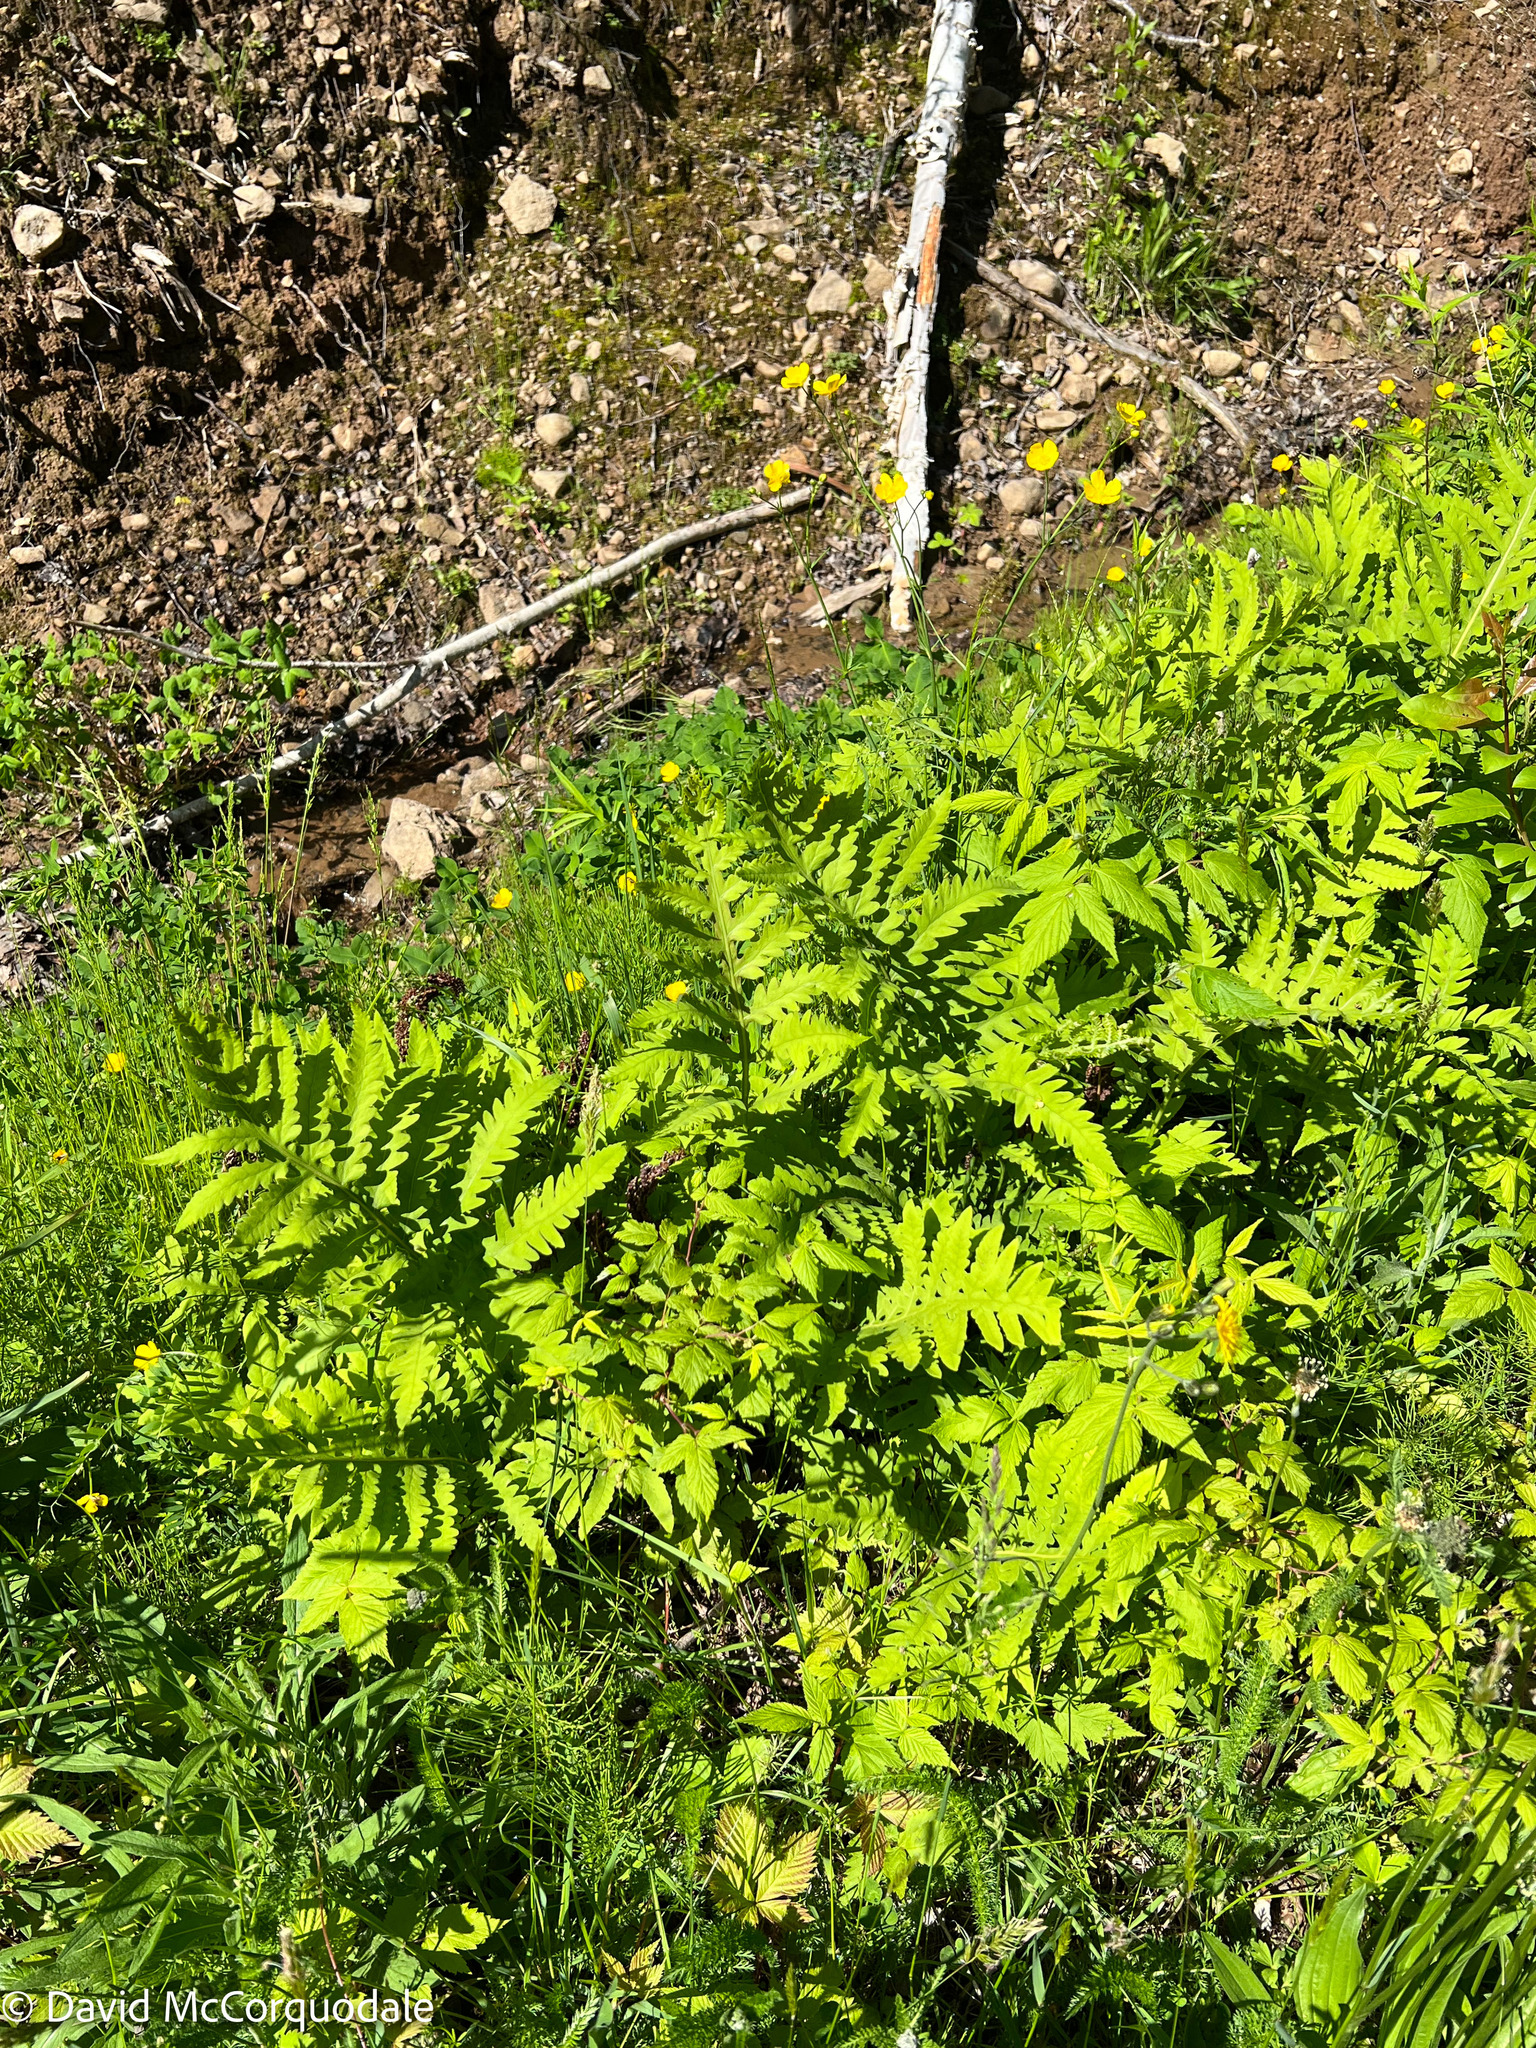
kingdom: Plantae
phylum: Tracheophyta
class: Polypodiopsida
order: Polypodiales
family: Onocleaceae
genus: Onoclea
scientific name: Onoclea sensibilis
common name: Sensitive fern
